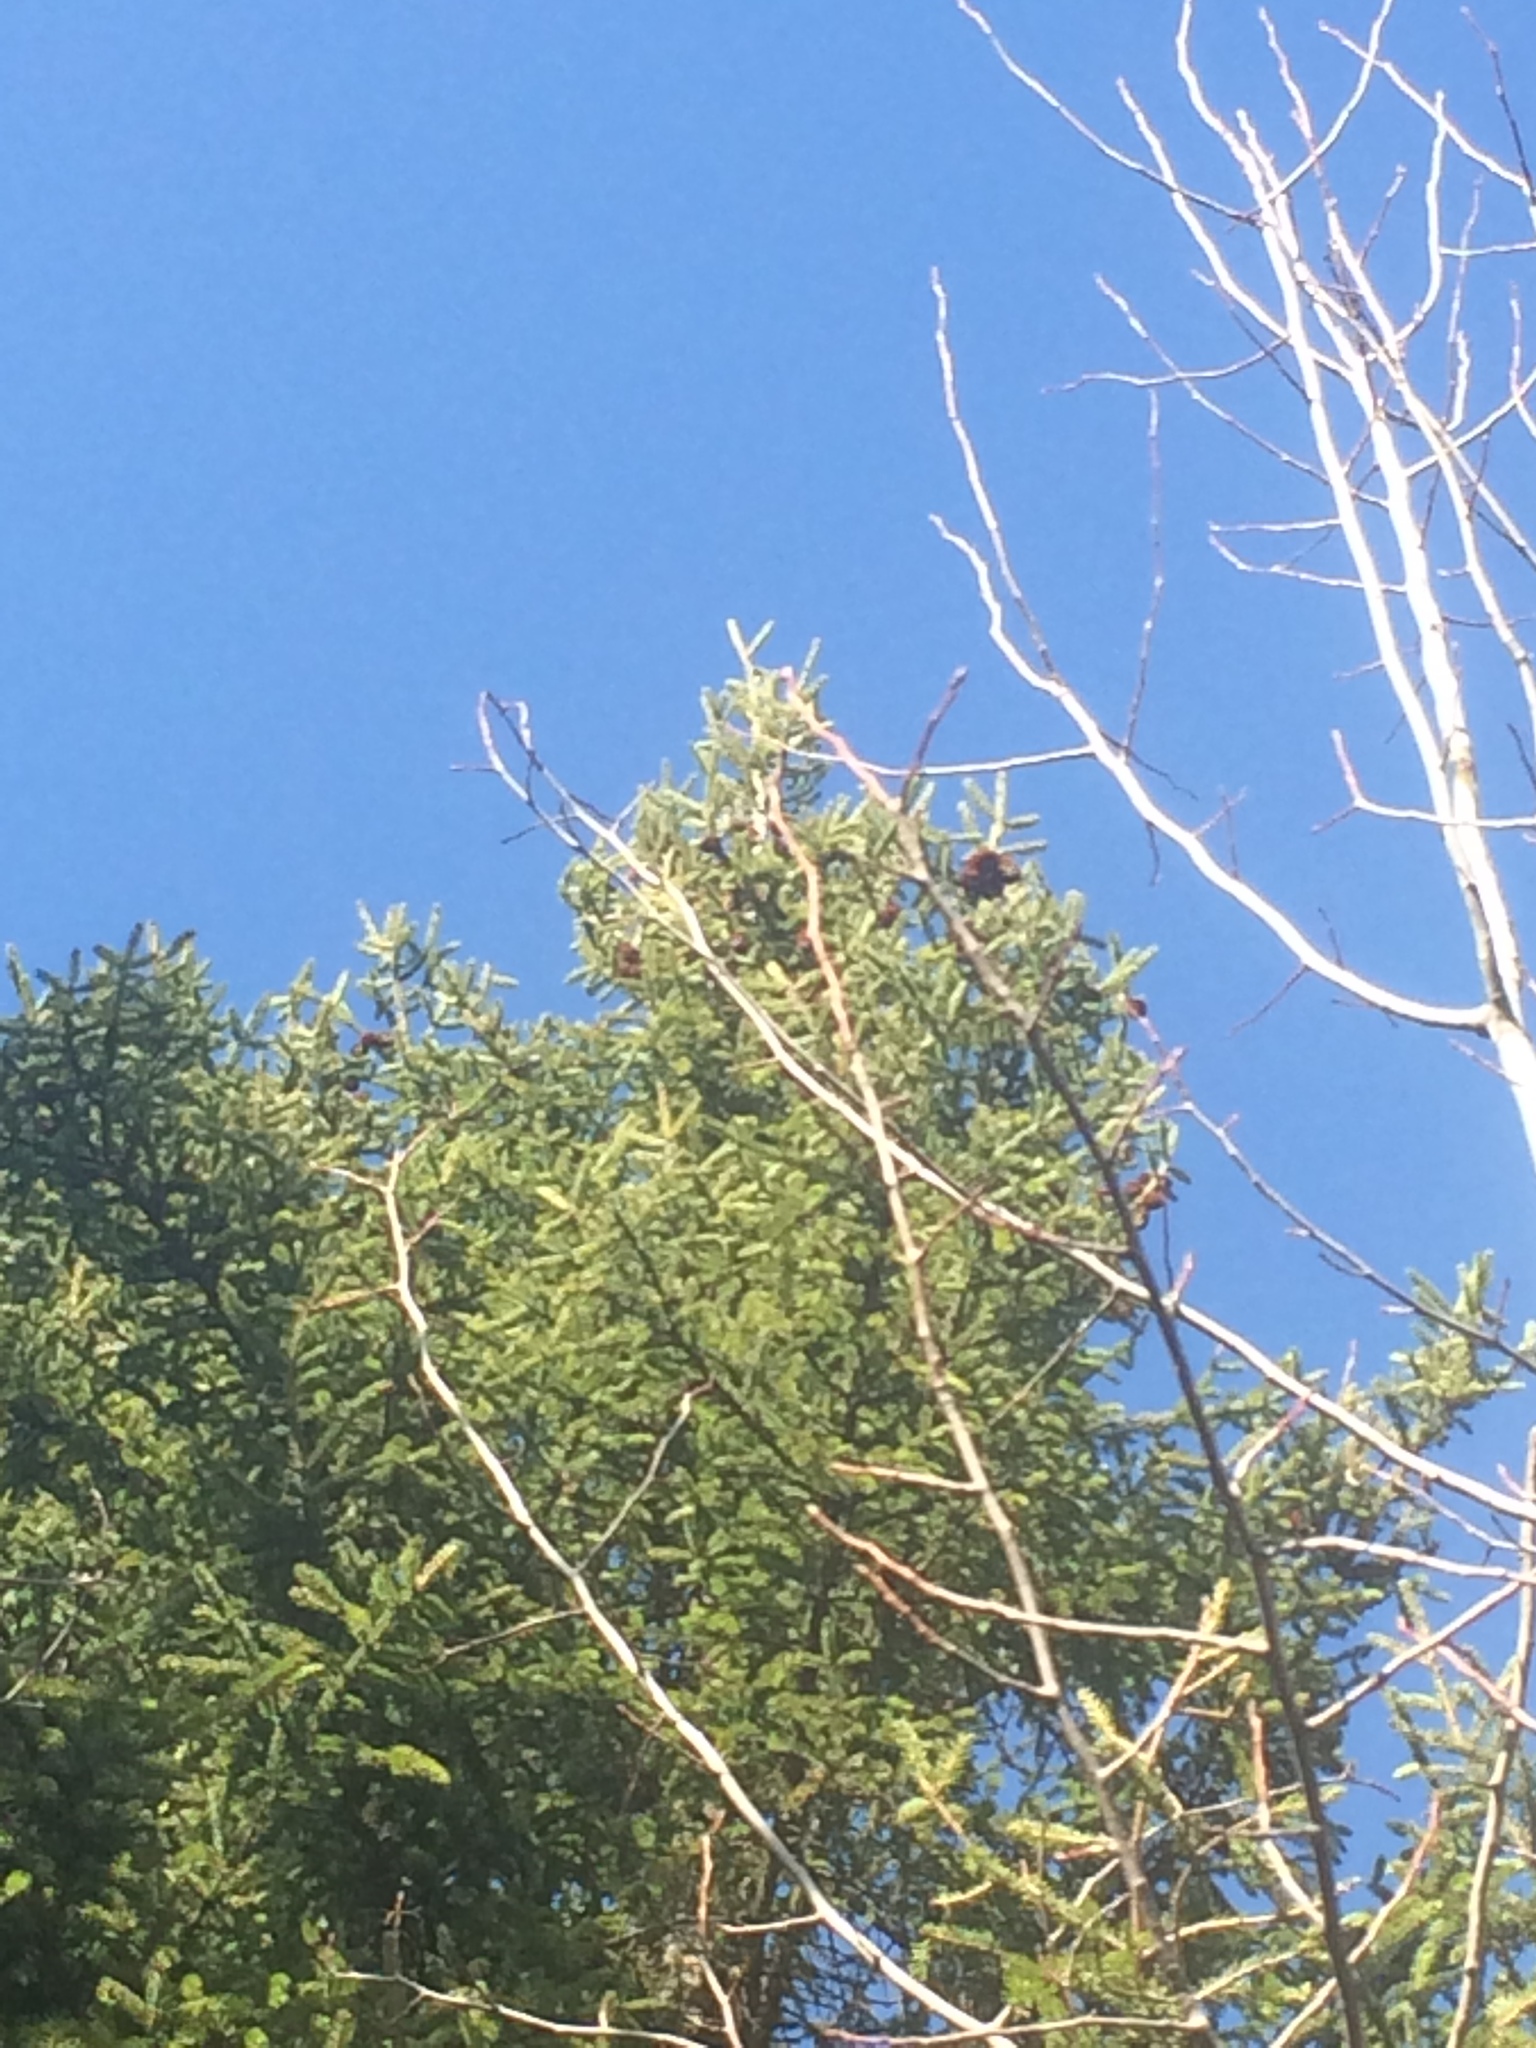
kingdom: Plantae
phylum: Tracheophyta
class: Pinopsida
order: Pinales
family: Pinaceae
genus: Picea
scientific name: Picea rubens
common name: Red spruce
